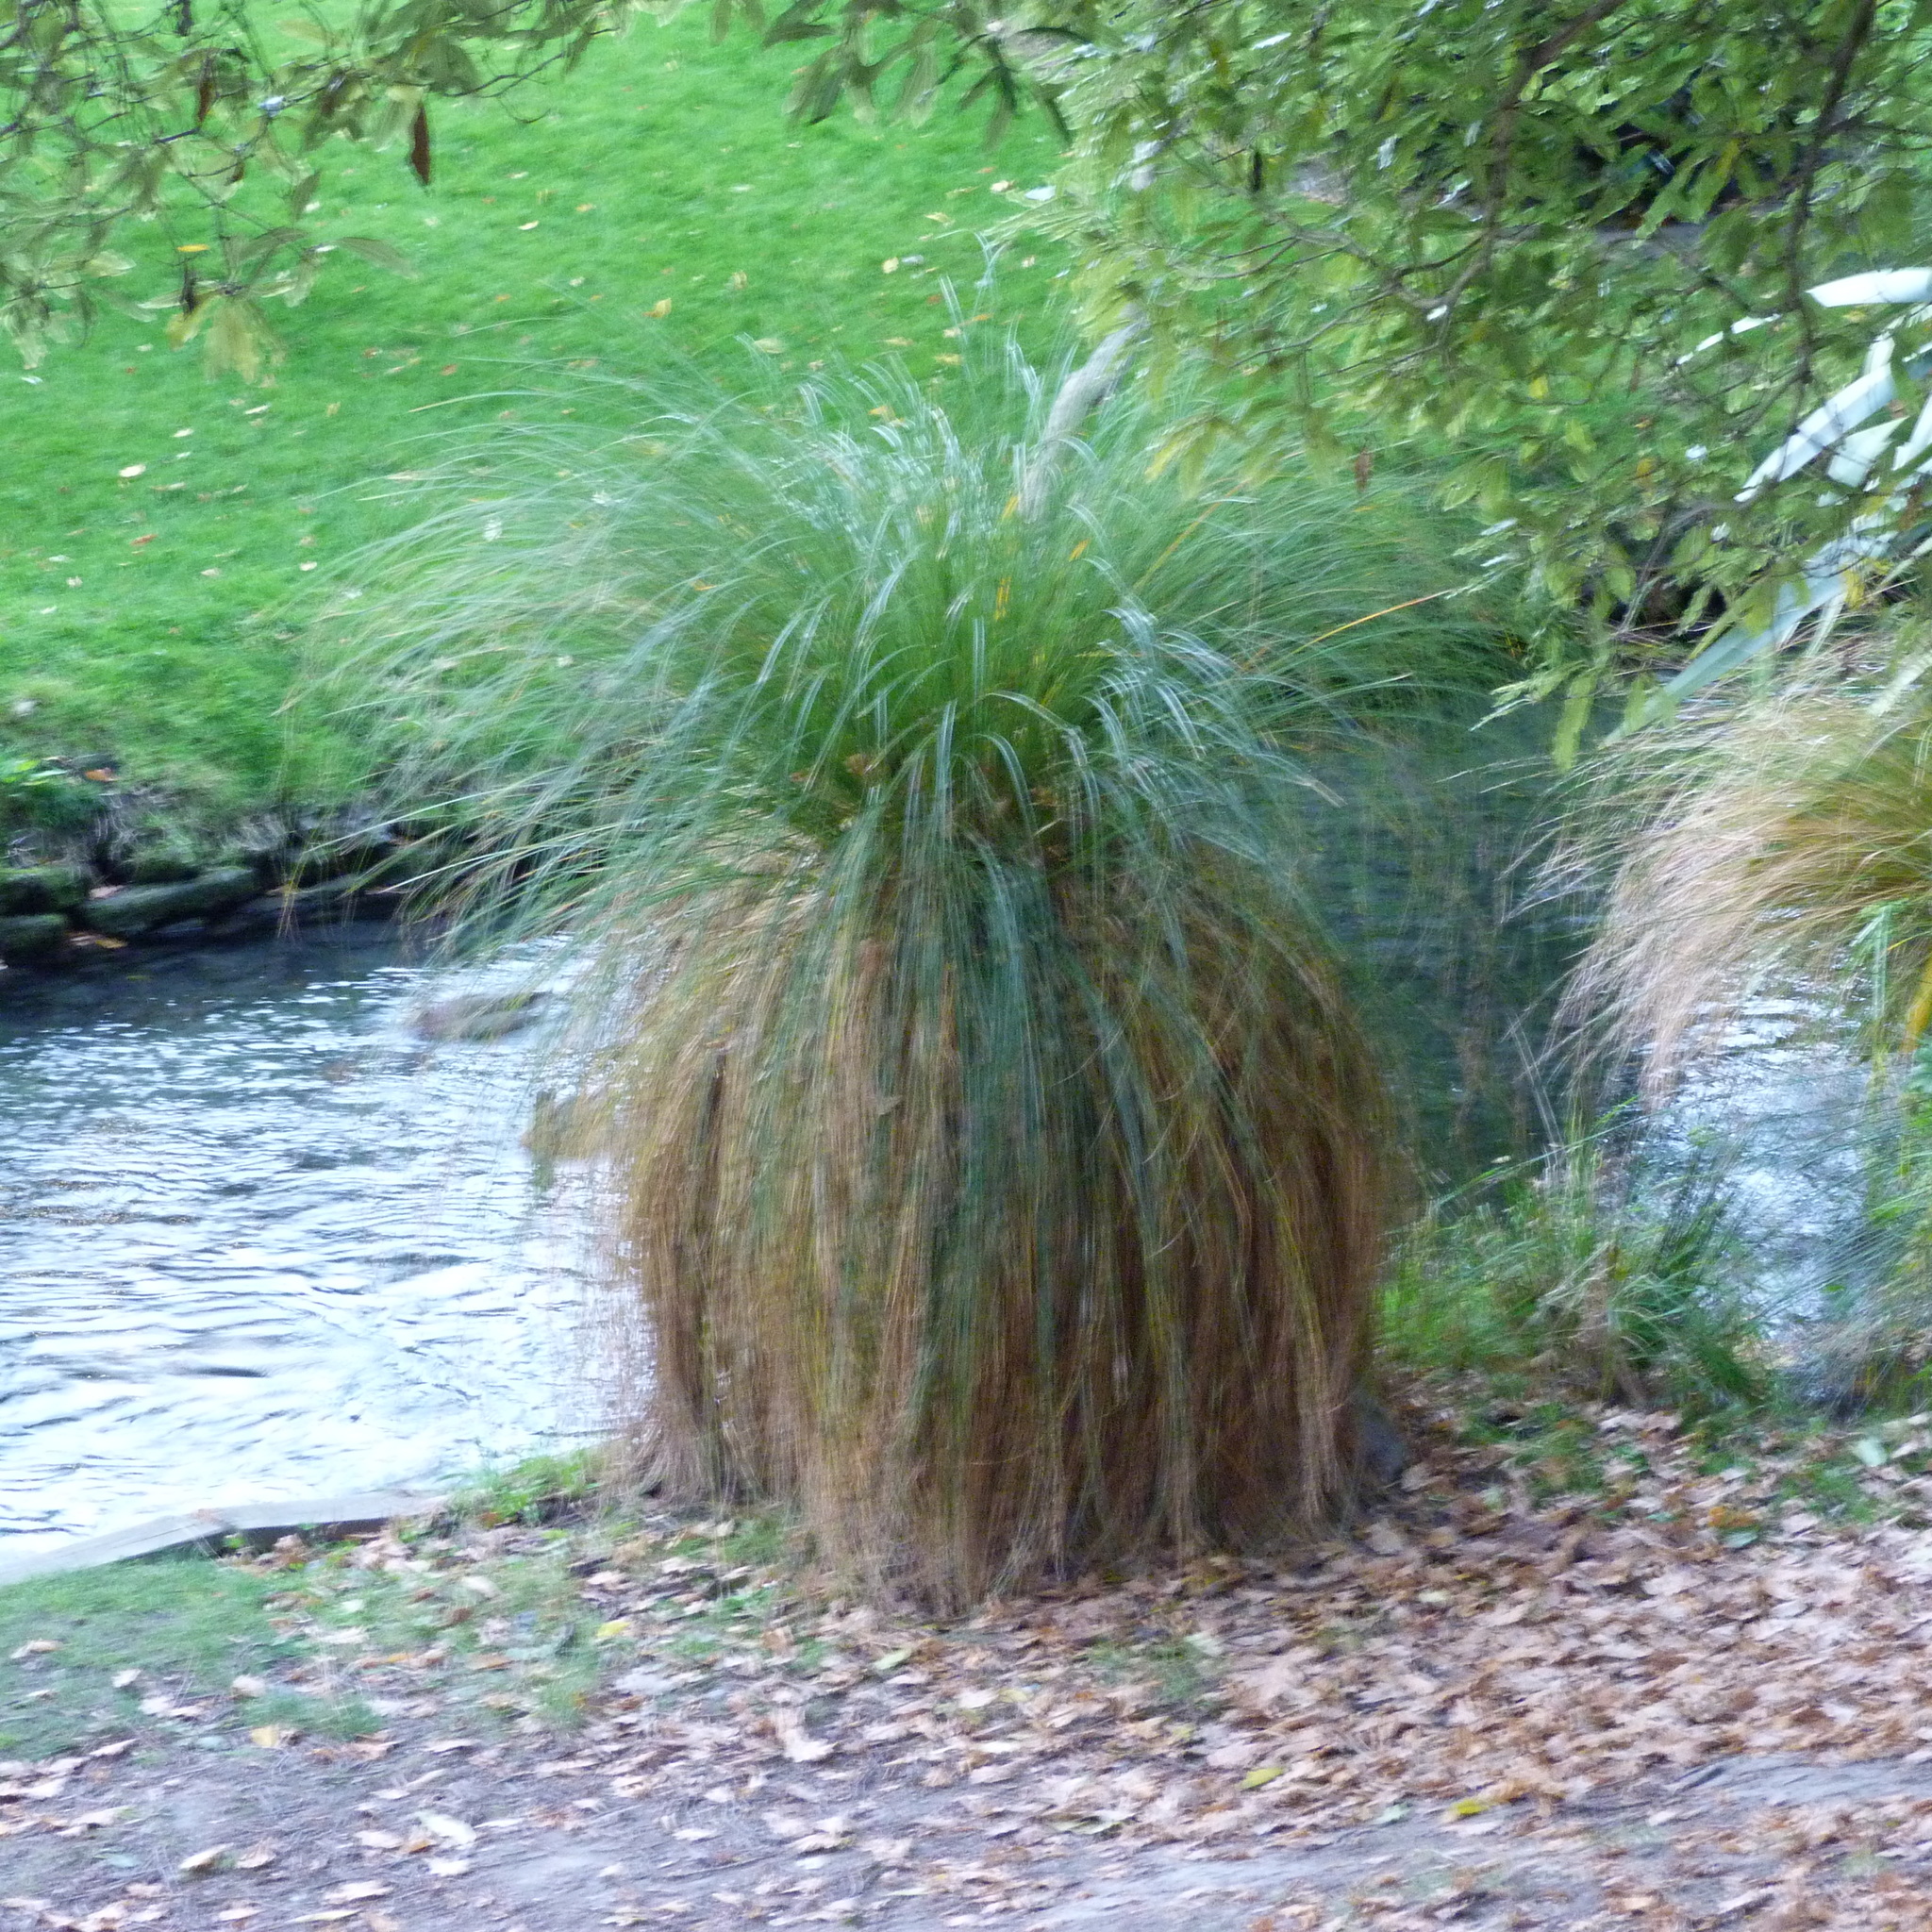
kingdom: Plantae
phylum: Tracheophyta
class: Liliopsida
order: Poales
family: Cyperaceae
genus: Carex
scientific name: Carex secta
